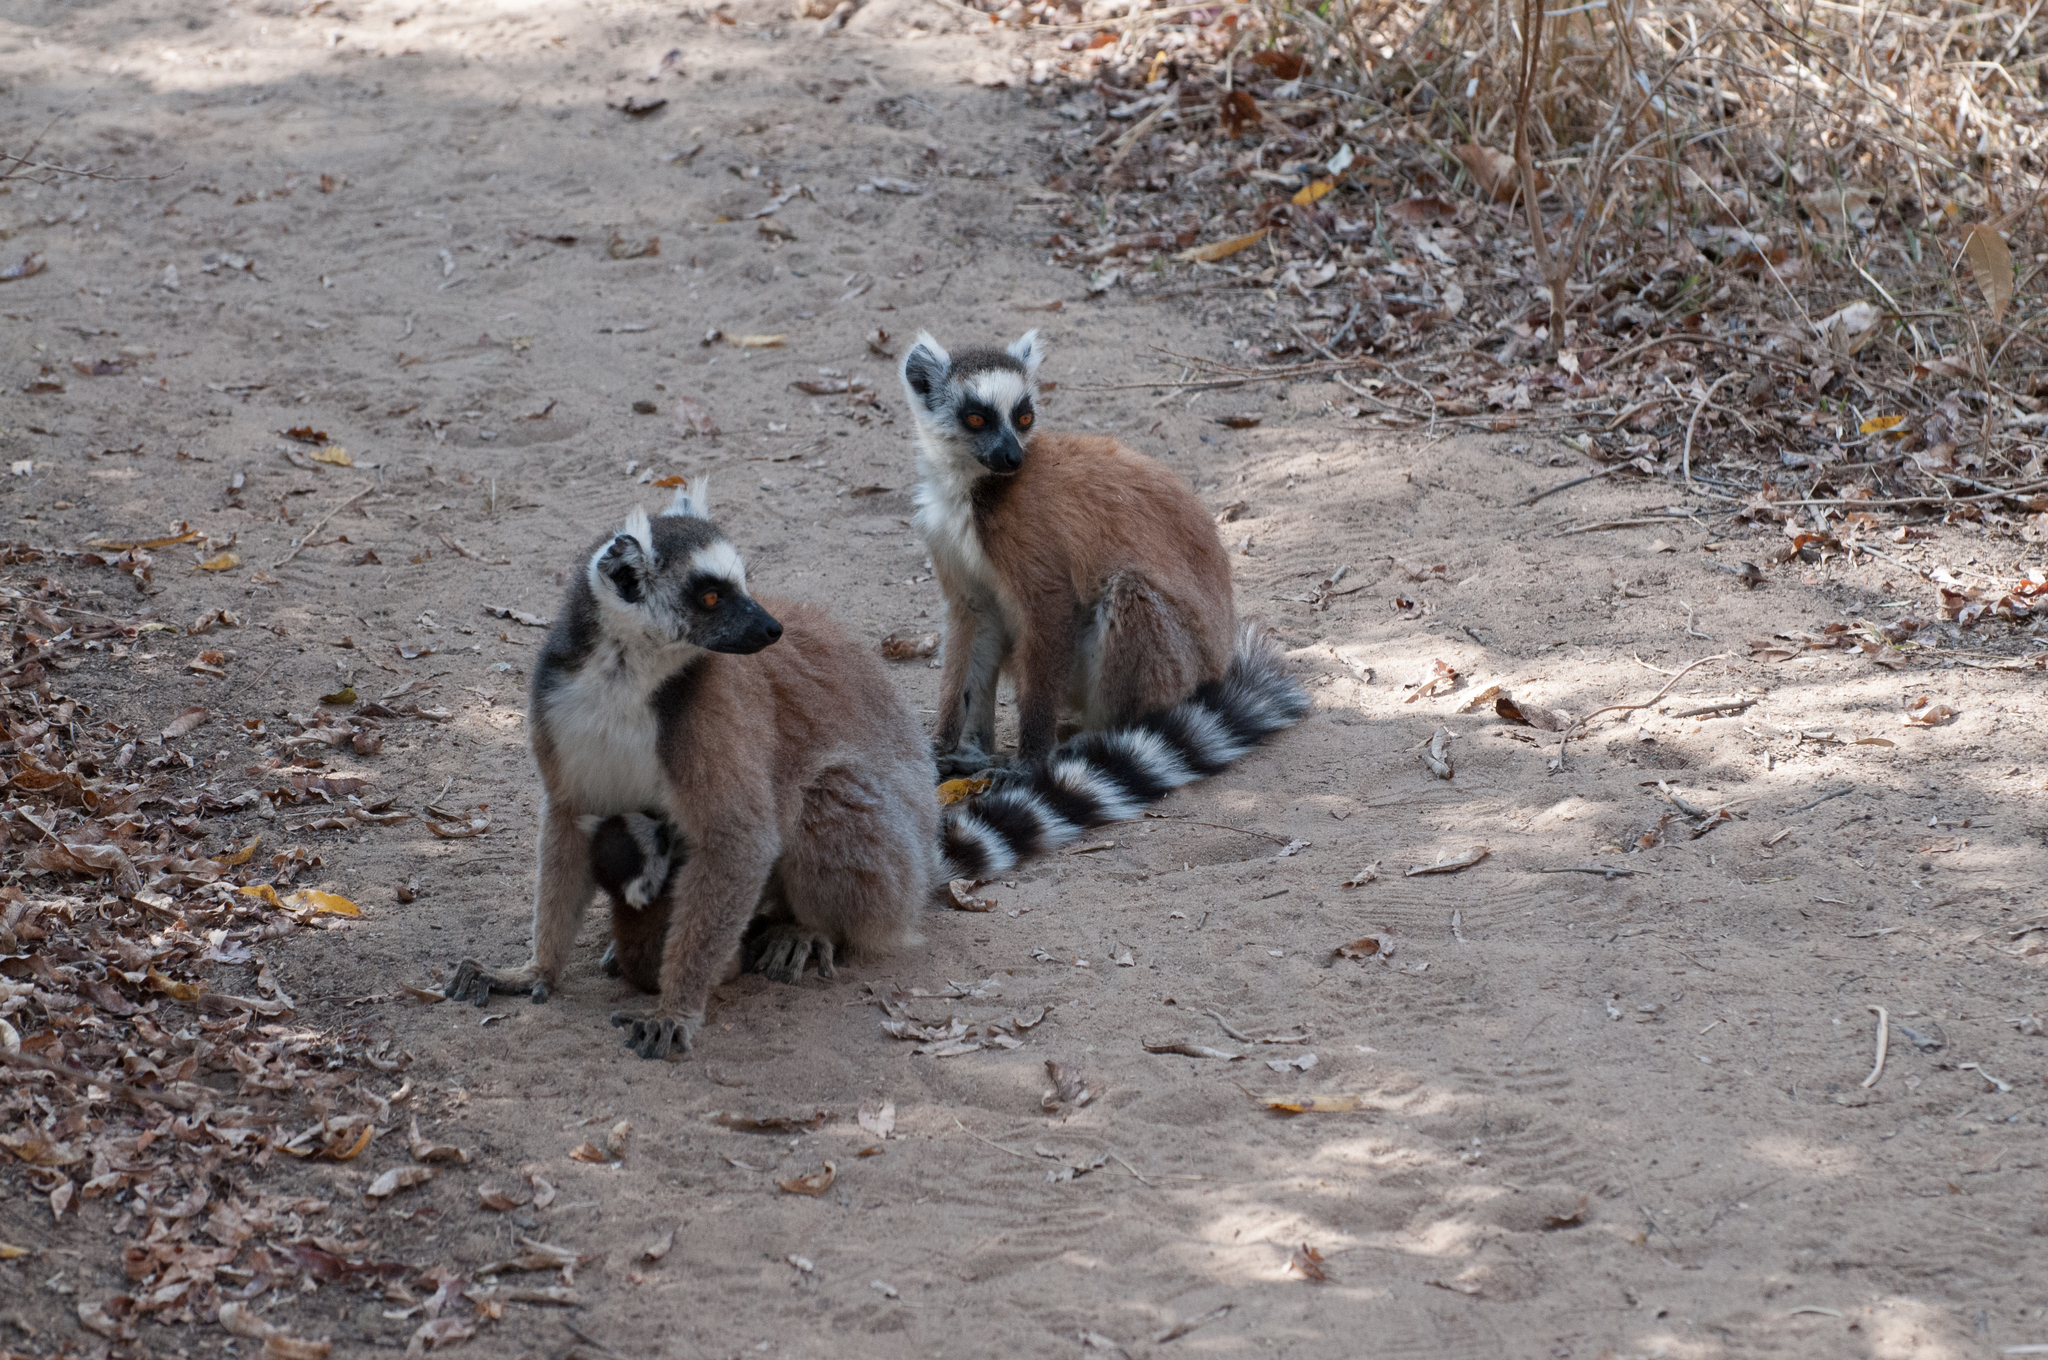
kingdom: Animalia
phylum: Chordata
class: Mammalia
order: Primates
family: Lemuridae
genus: Lemur
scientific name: Lemur catta
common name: Ring-tailed lemur
